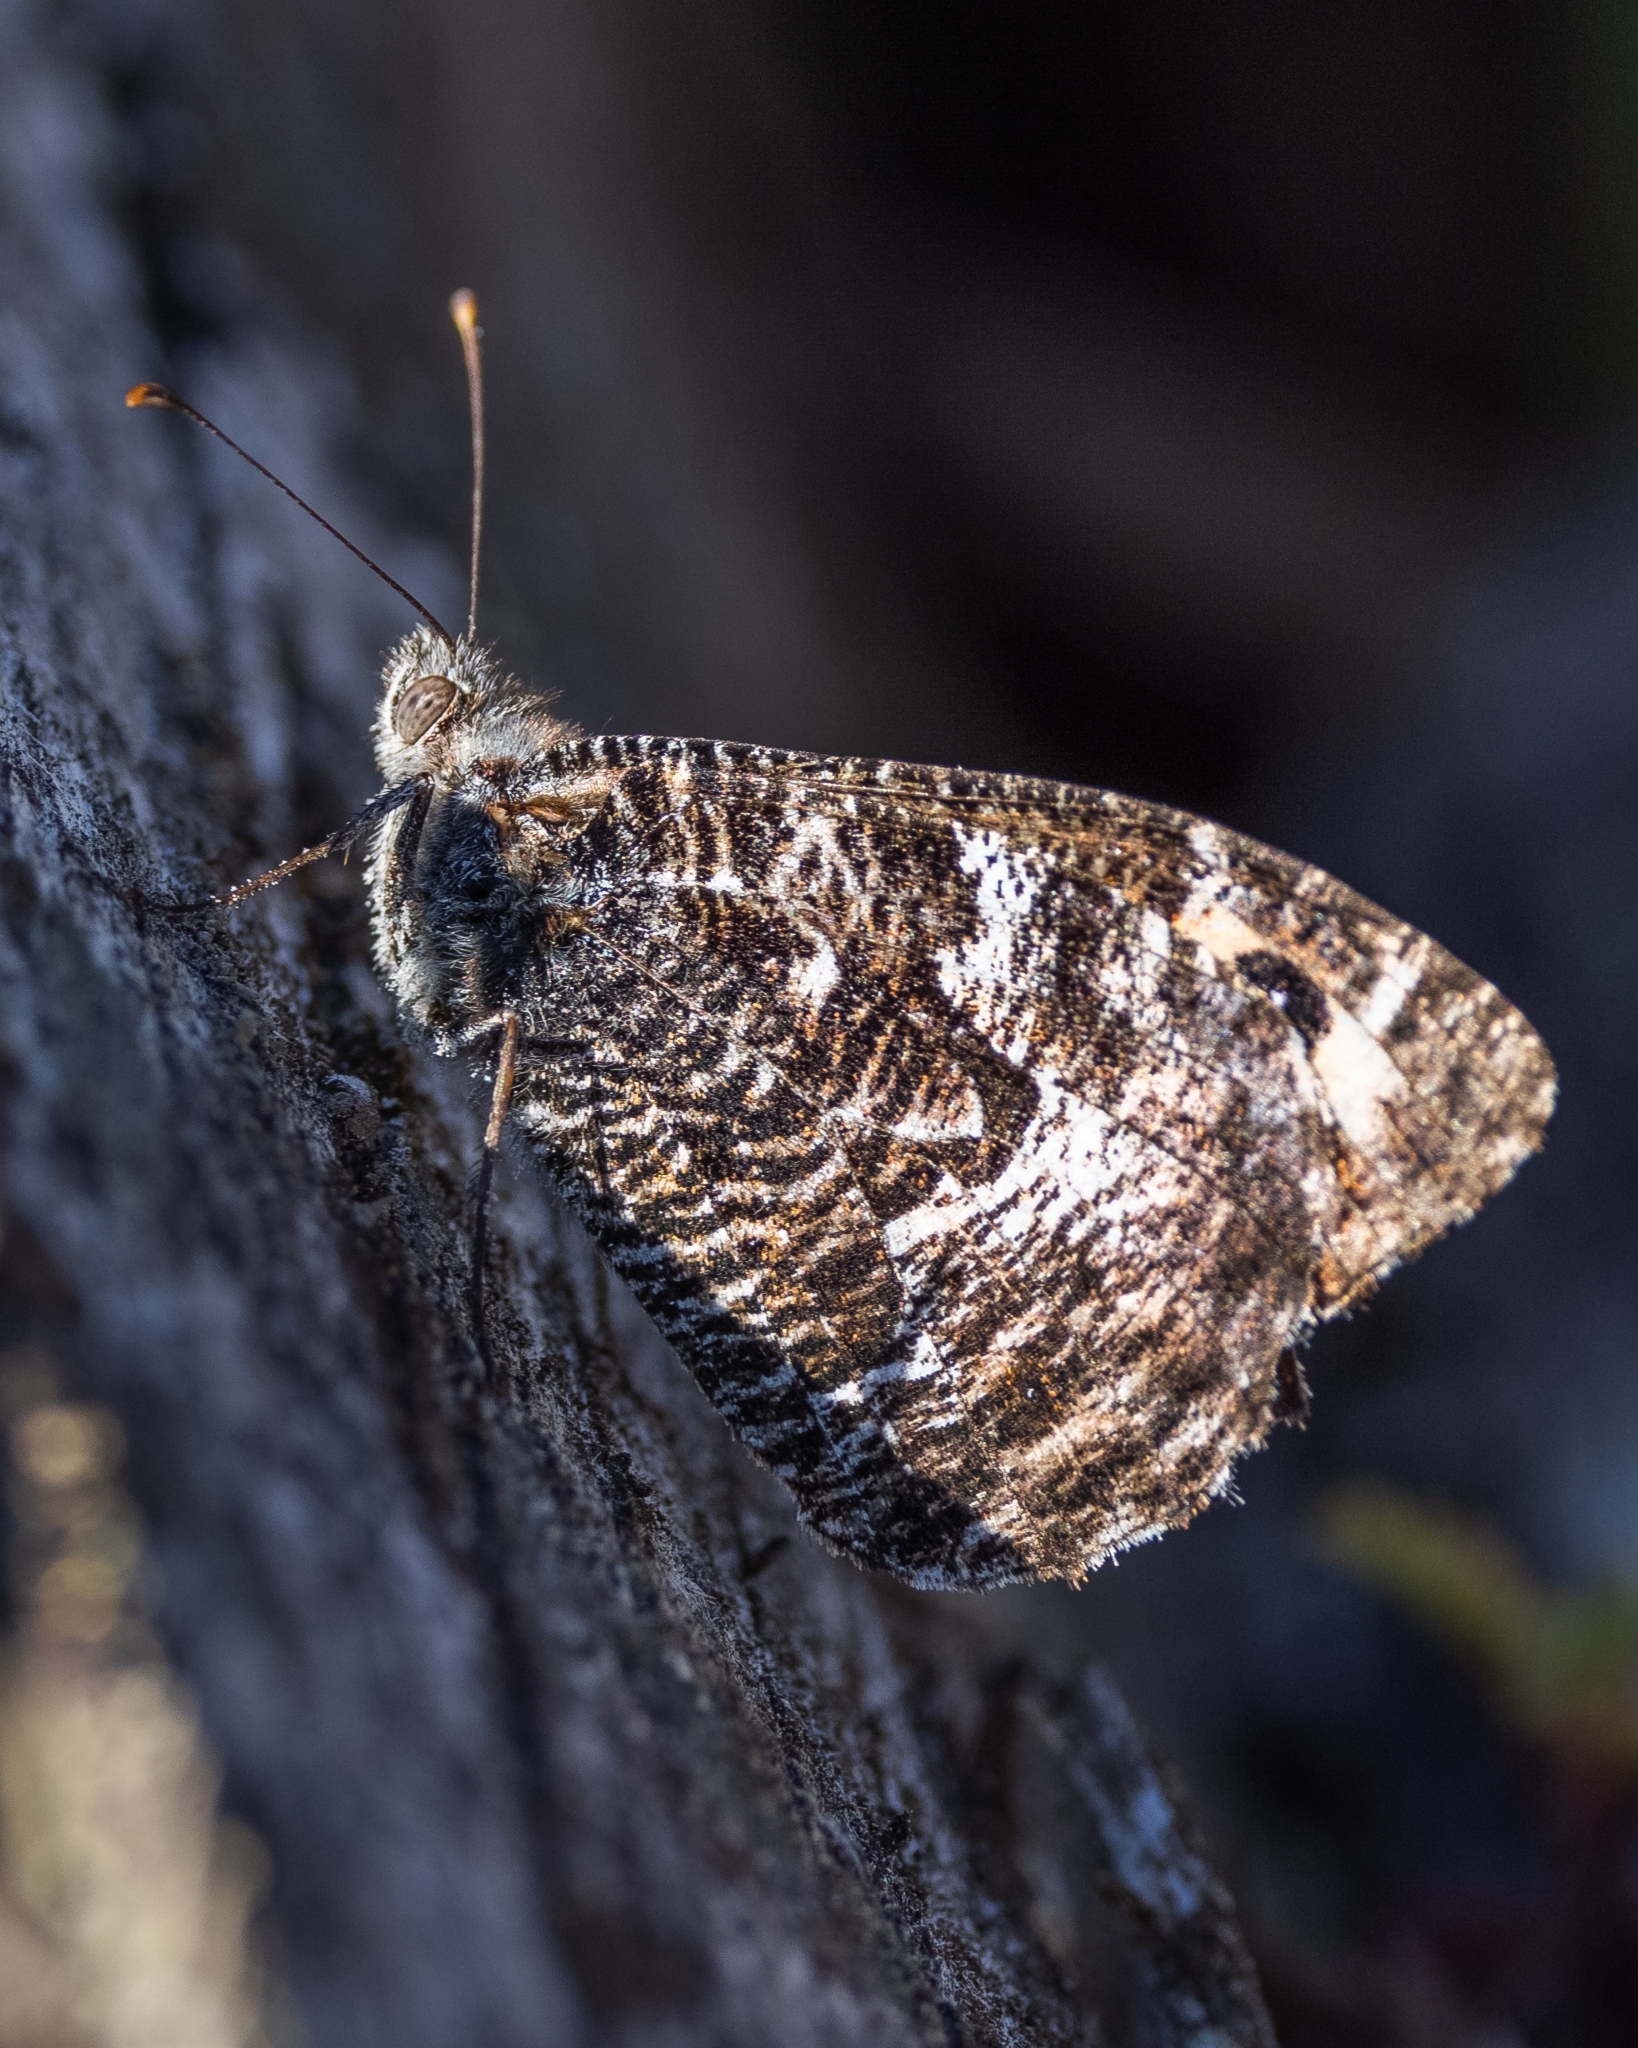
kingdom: Animalia
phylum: Arthropoda
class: Insecta
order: Lepidoptera
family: Nymphalidae
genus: Hipparchia
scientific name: Hipparchia semele
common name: Grayling
